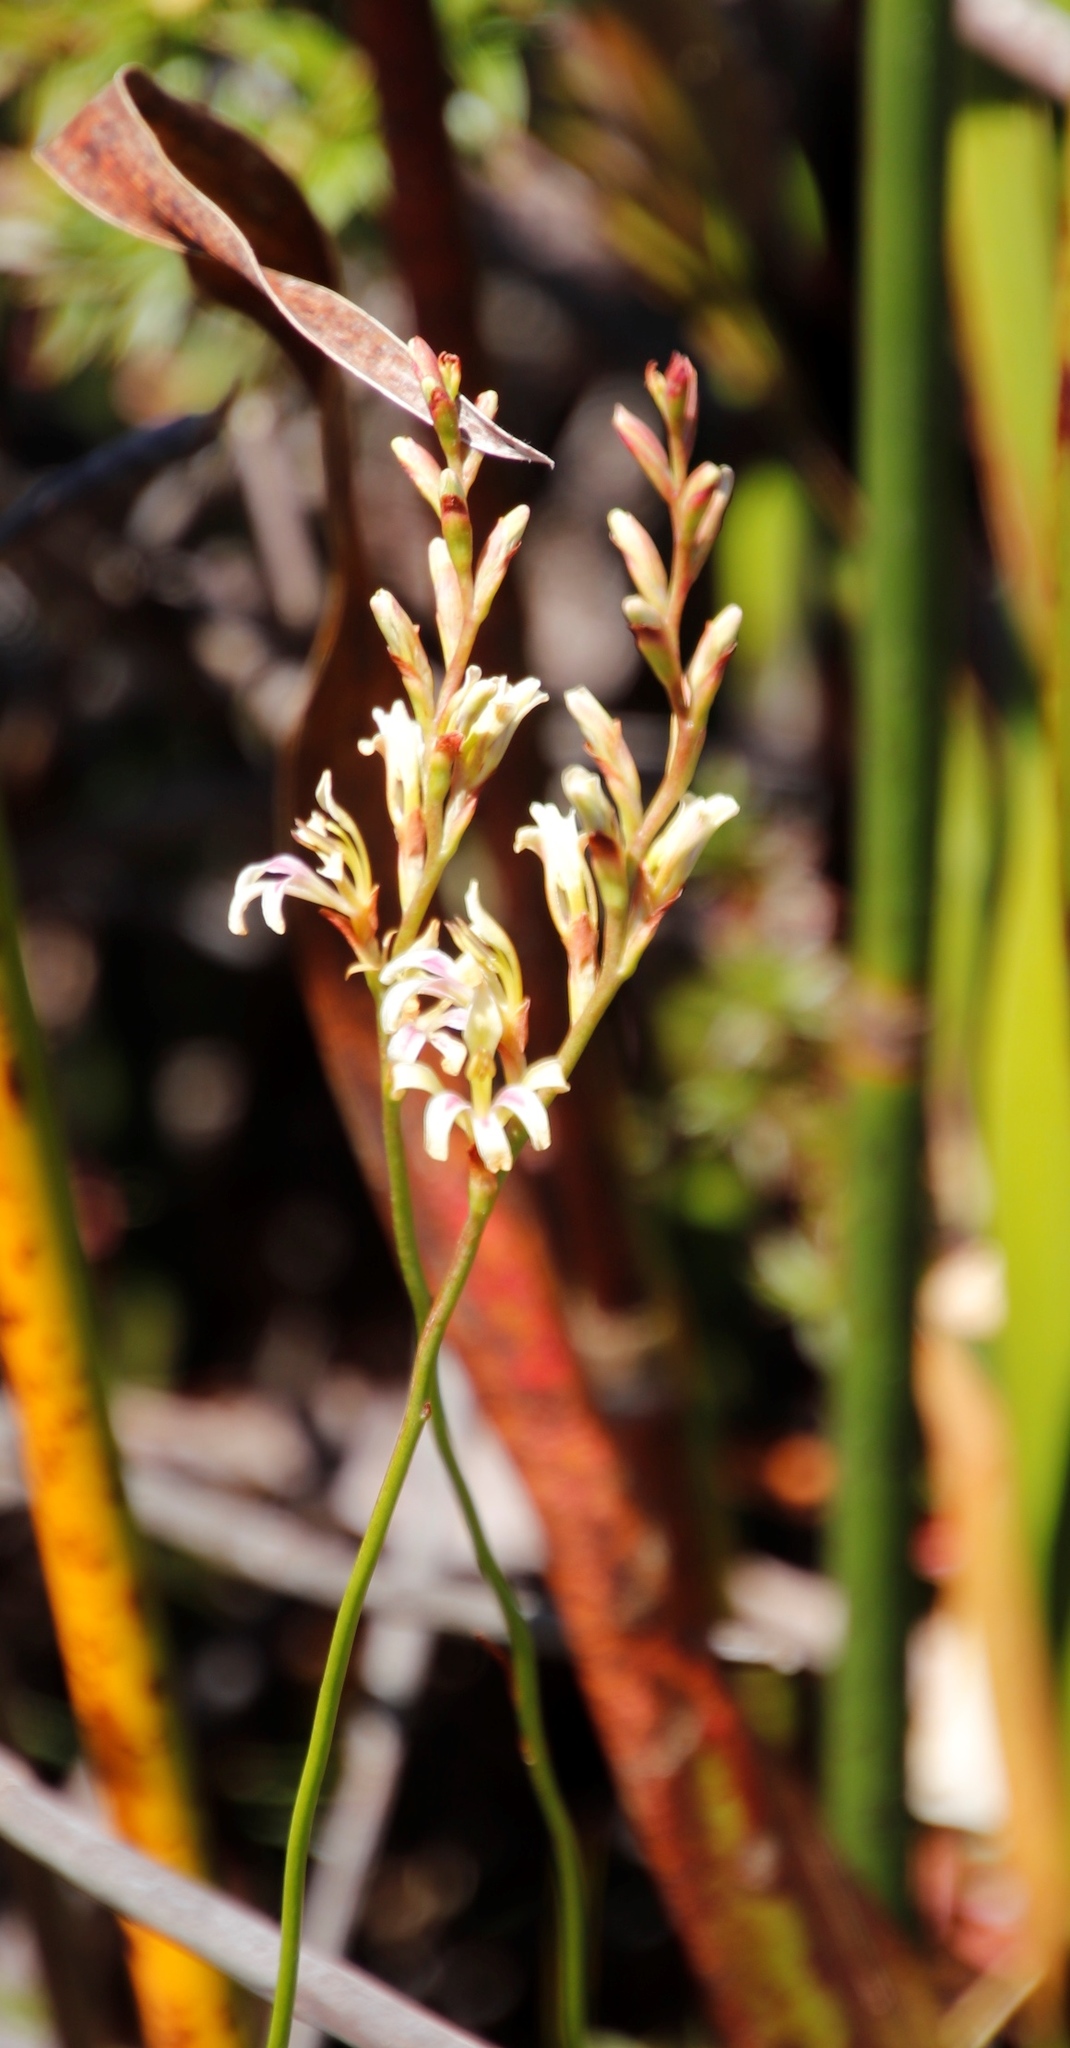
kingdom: Plantae
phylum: Tracheophyta
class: Liliopsida
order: Asparagales
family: Iridaceae
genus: Tritoniopsis
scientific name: Tritoniopsis unguicularis
